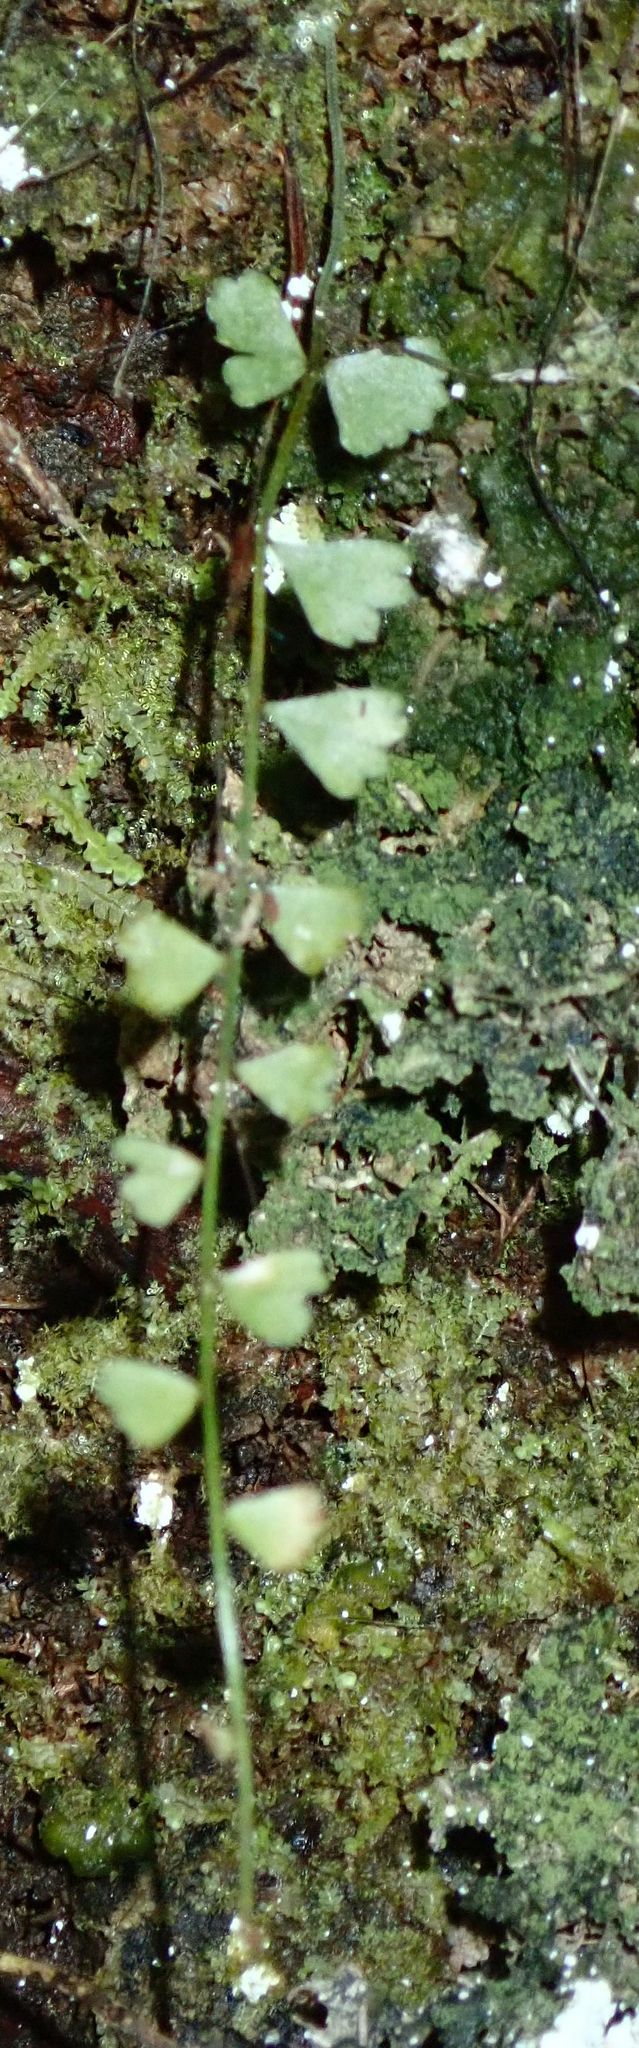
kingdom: Plantae
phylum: Tracheophyta
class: Polypodiopsida
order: Polypodiales
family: Aspleniaceae
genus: Asplenium
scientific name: Asplenium flabellifolium
